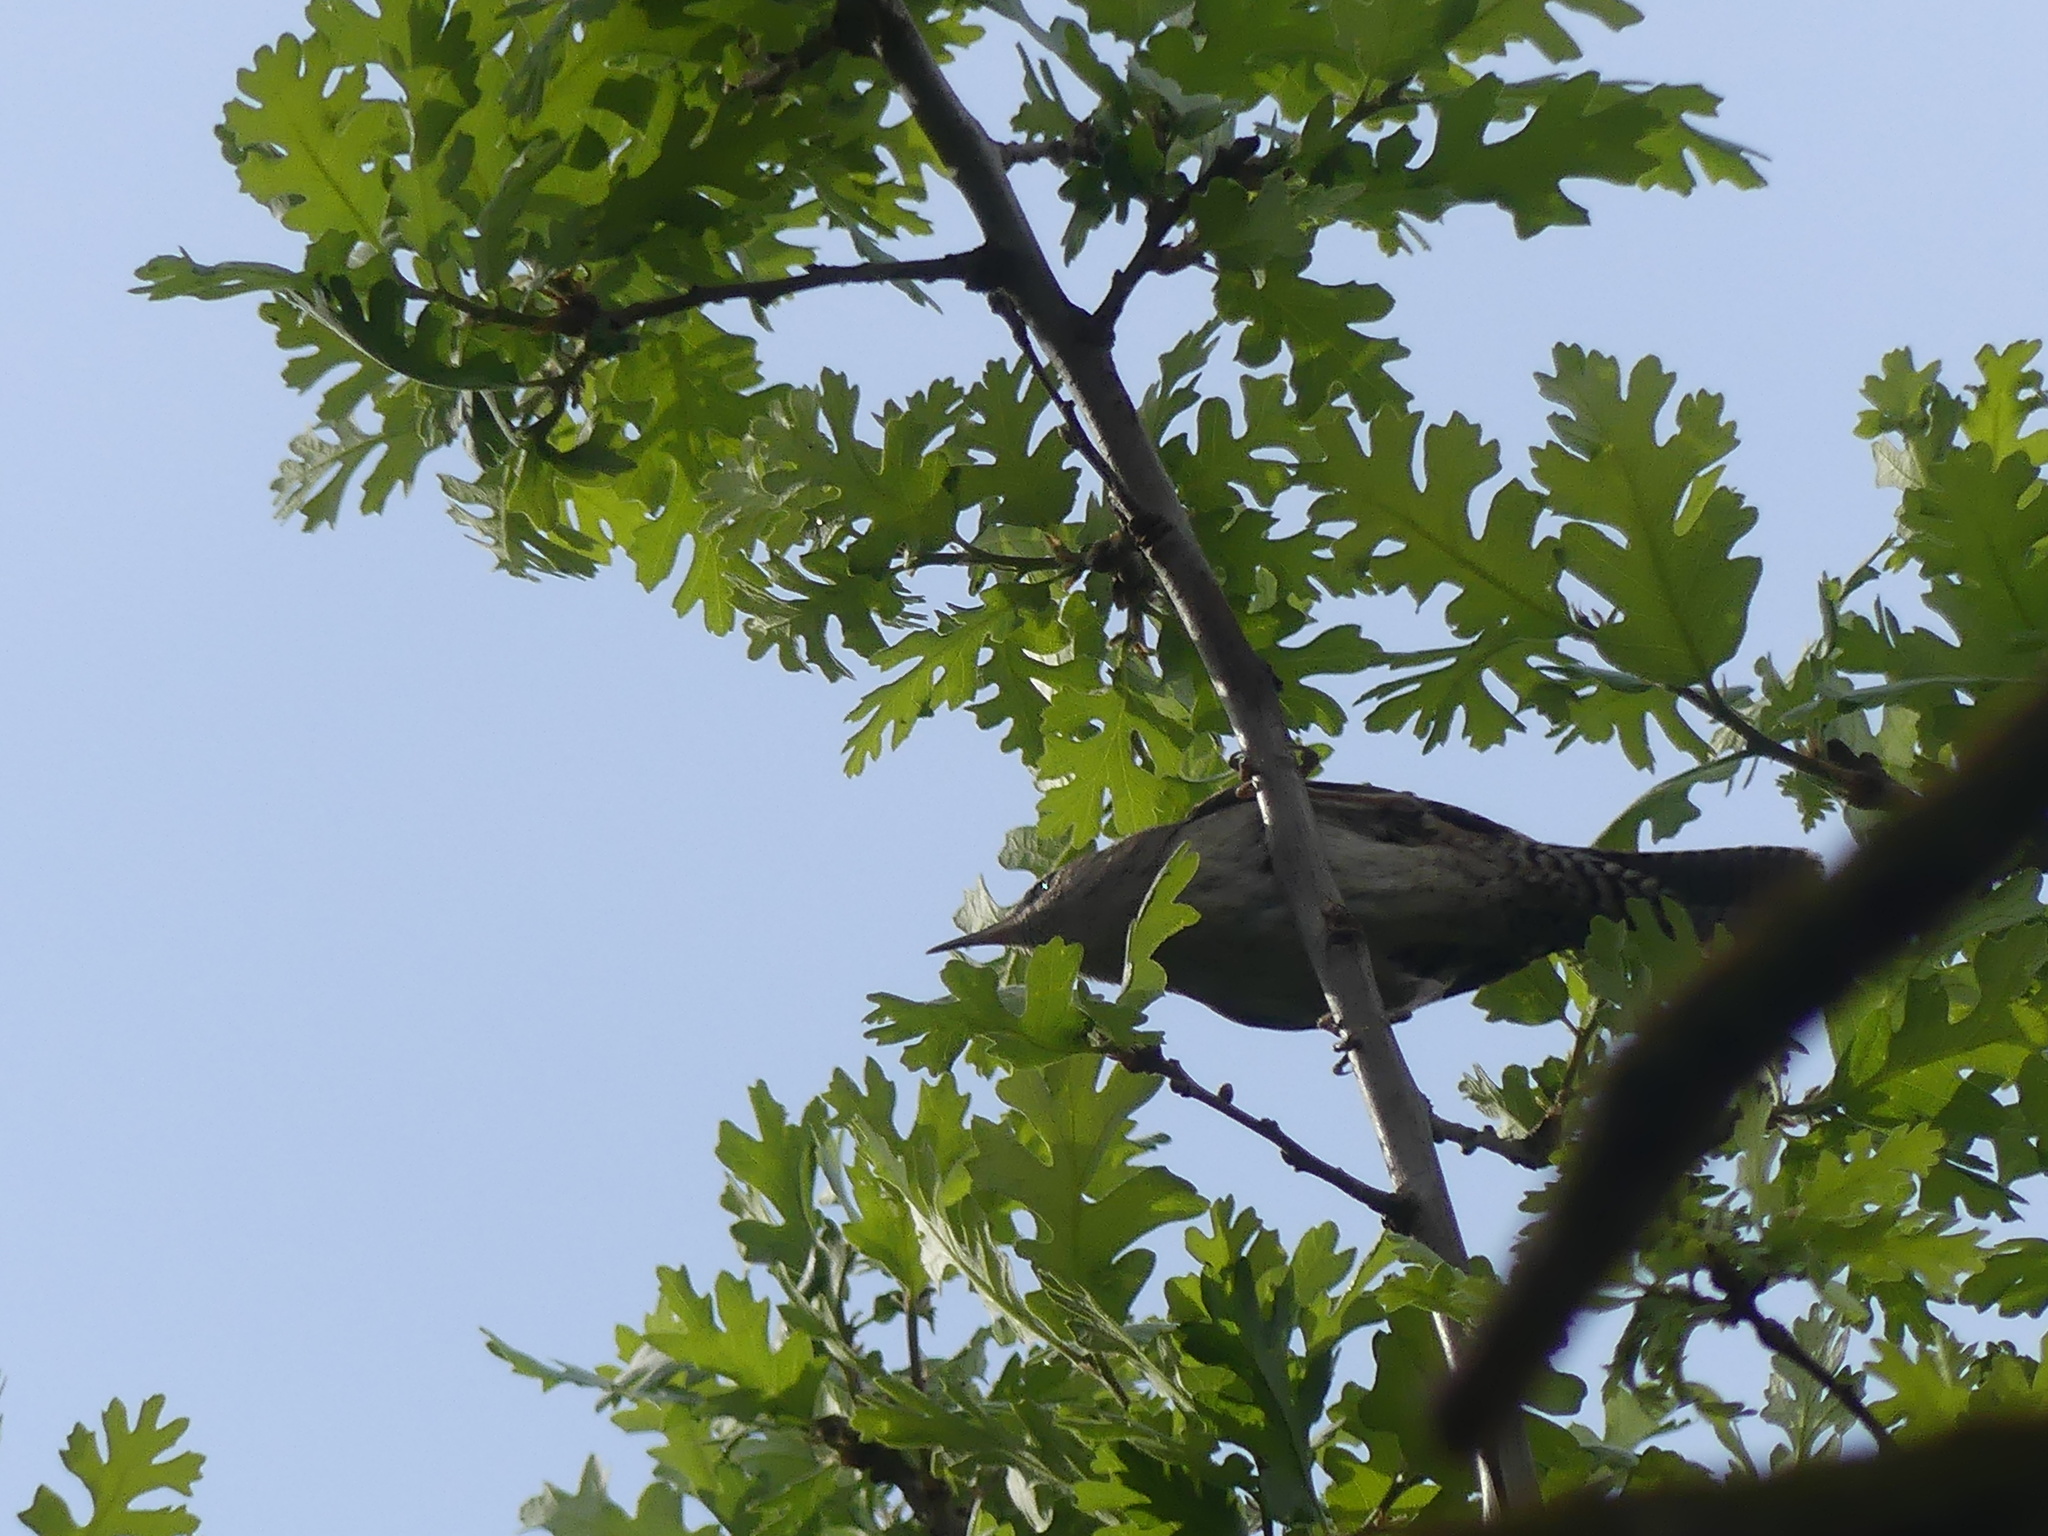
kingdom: Animalia
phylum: Chordata
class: Aves
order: Passeriformes
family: Troglodytidae
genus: Troglodytes
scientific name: Troglodytes aedon
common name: House wren
